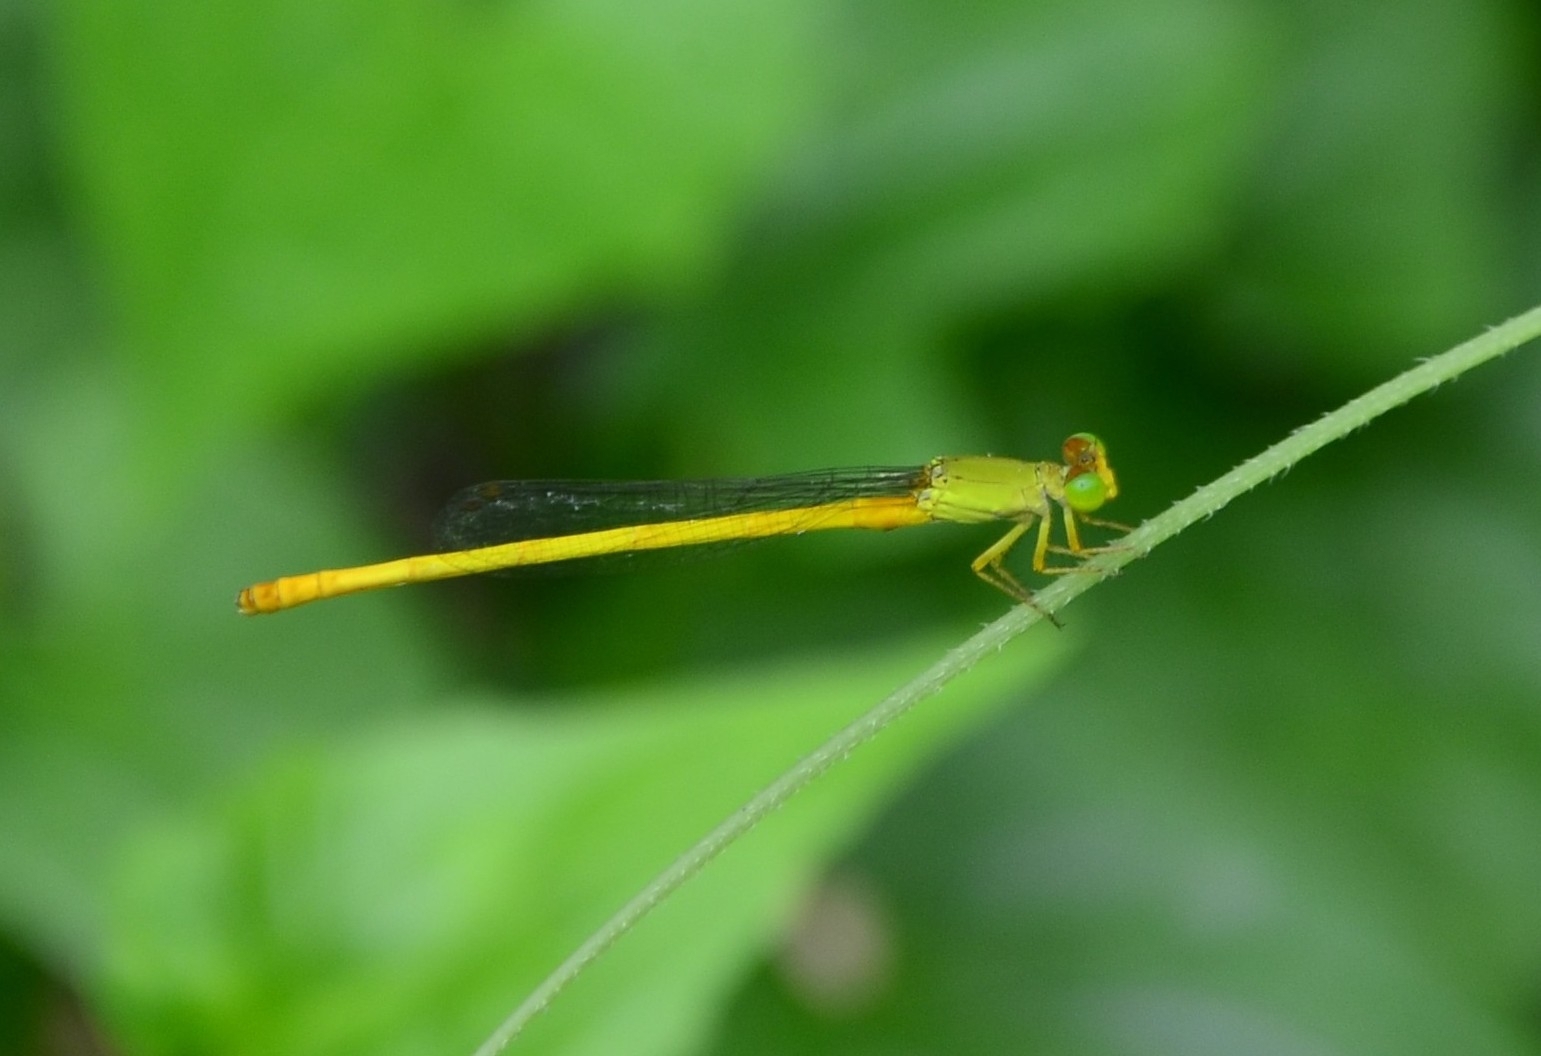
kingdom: Animalia
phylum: Arthropoda
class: Insecta
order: Odonata
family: Coenagrionidae
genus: Ceriagrion
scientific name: Ceriagrion coromandelianum
